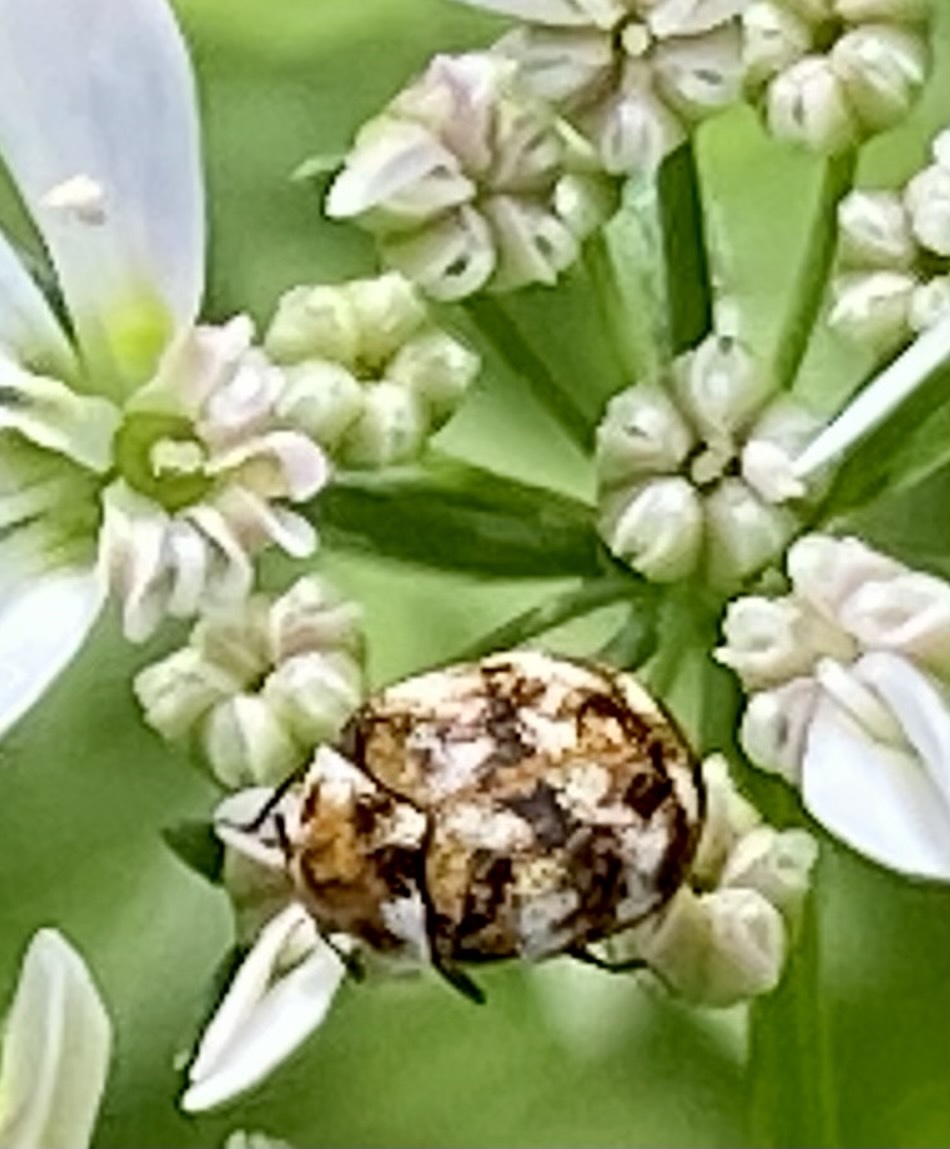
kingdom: Animalia
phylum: Arthropoda
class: Insecta
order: Coleoptera
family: Dermestidae
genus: Anthrenus
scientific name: Anthrenus verbasci
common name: Varied carpet beetle
